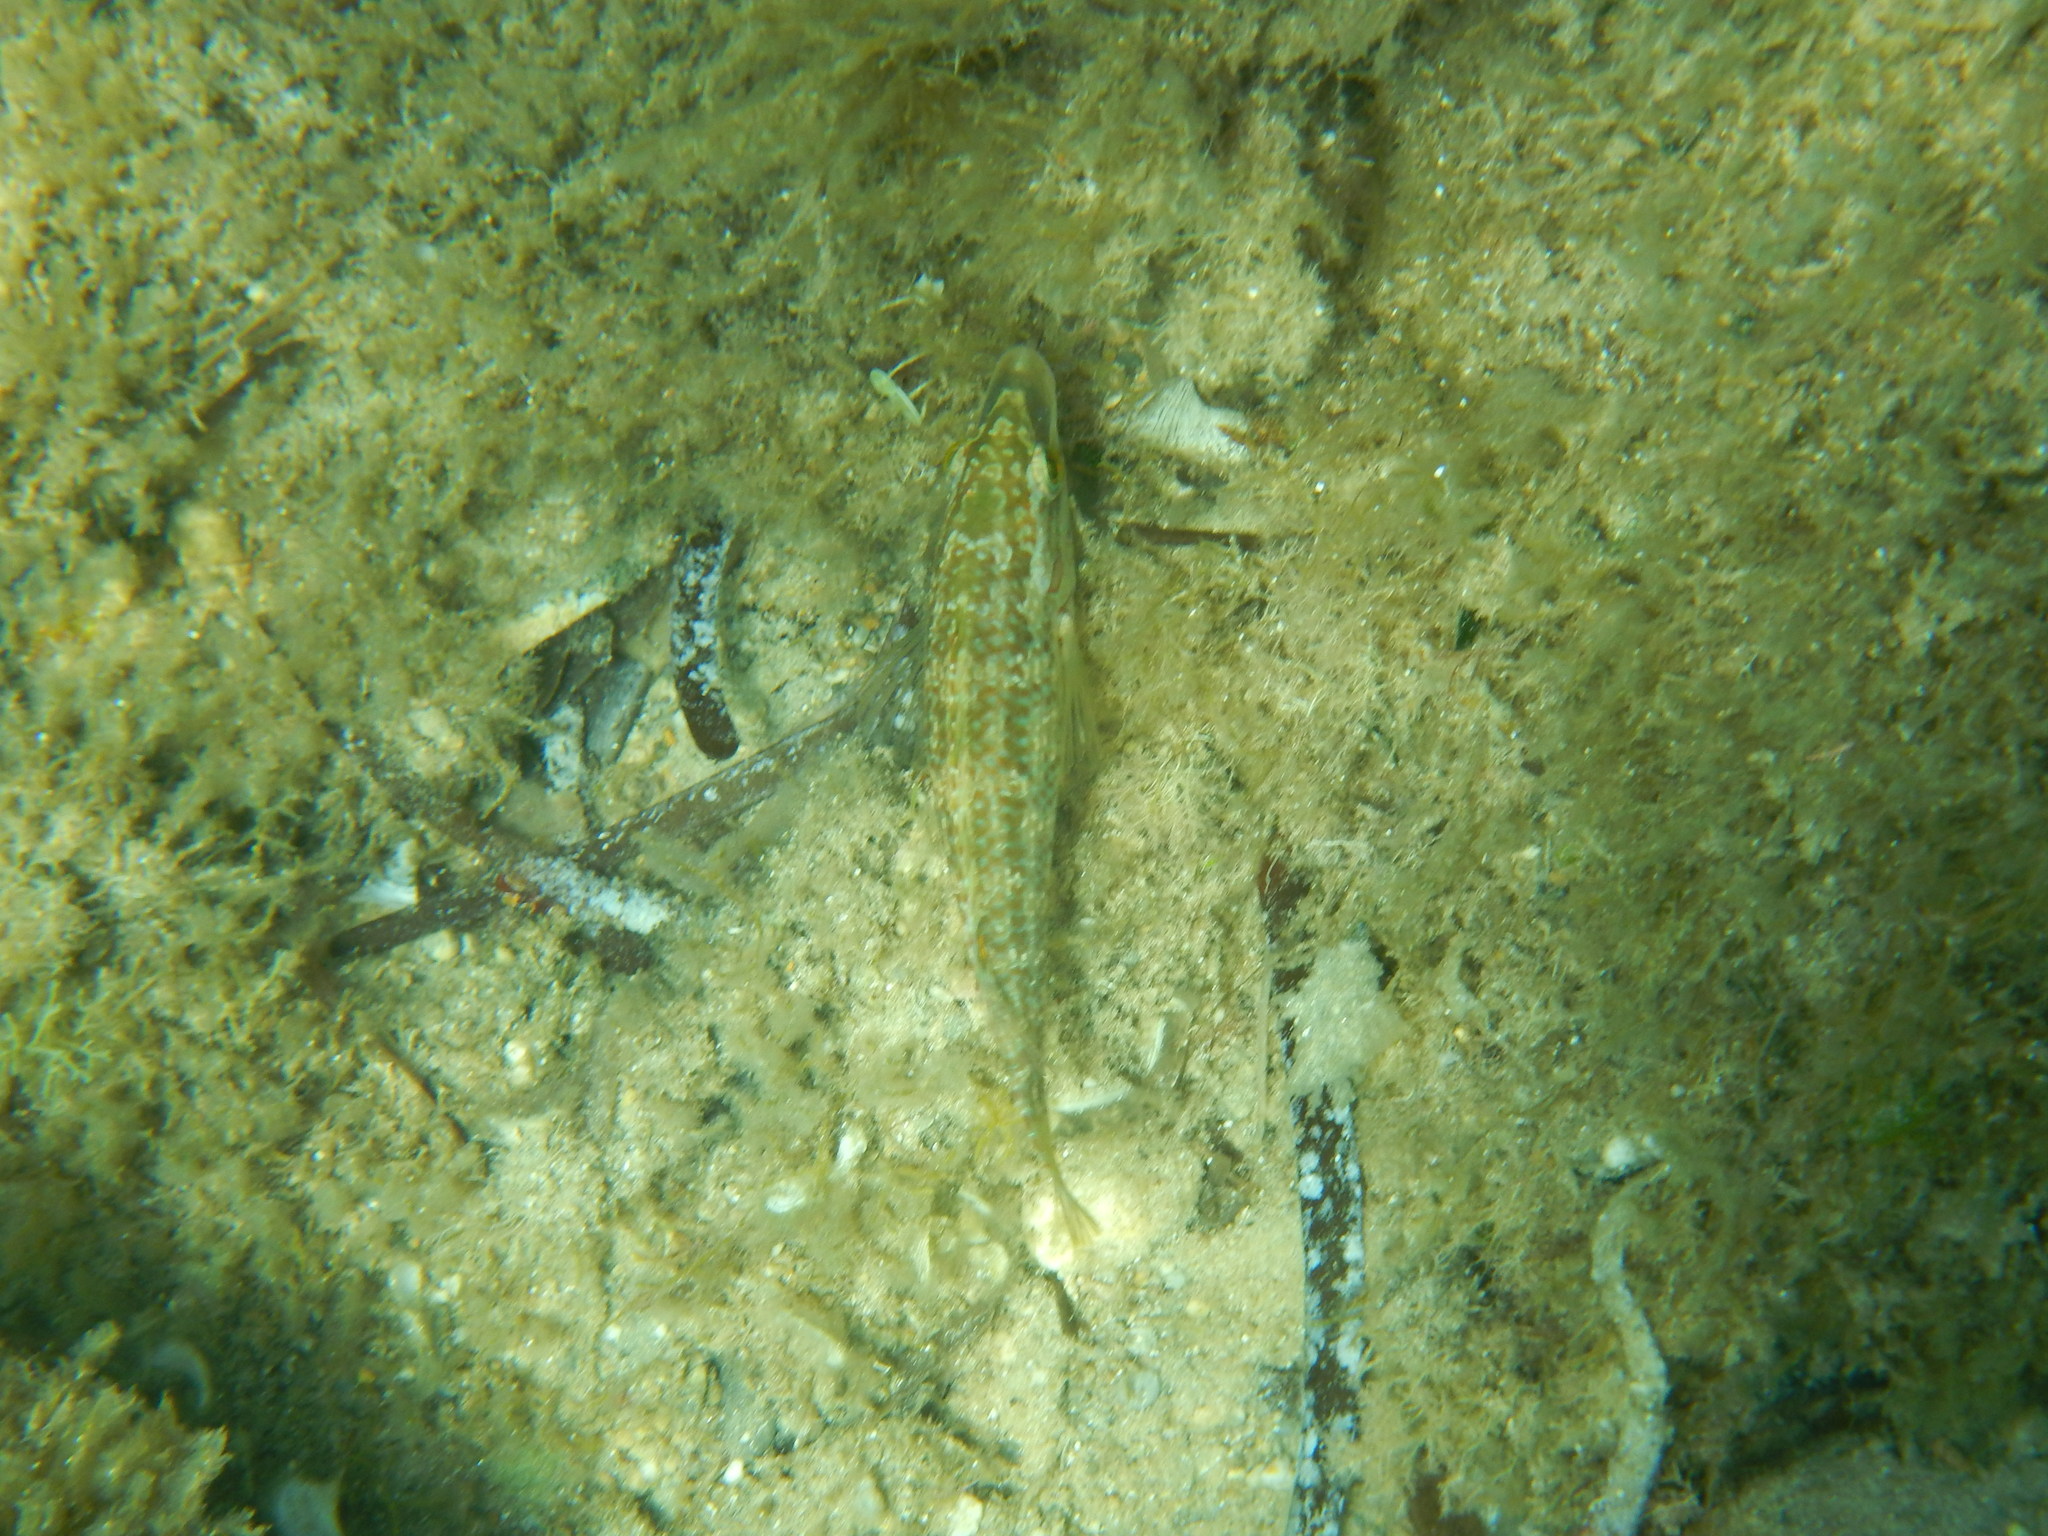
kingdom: Animalia
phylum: Chordata
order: Perciformes
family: Labridae
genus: Symphodus
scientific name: Symphodus roissali
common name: Five-spotted wrasse
